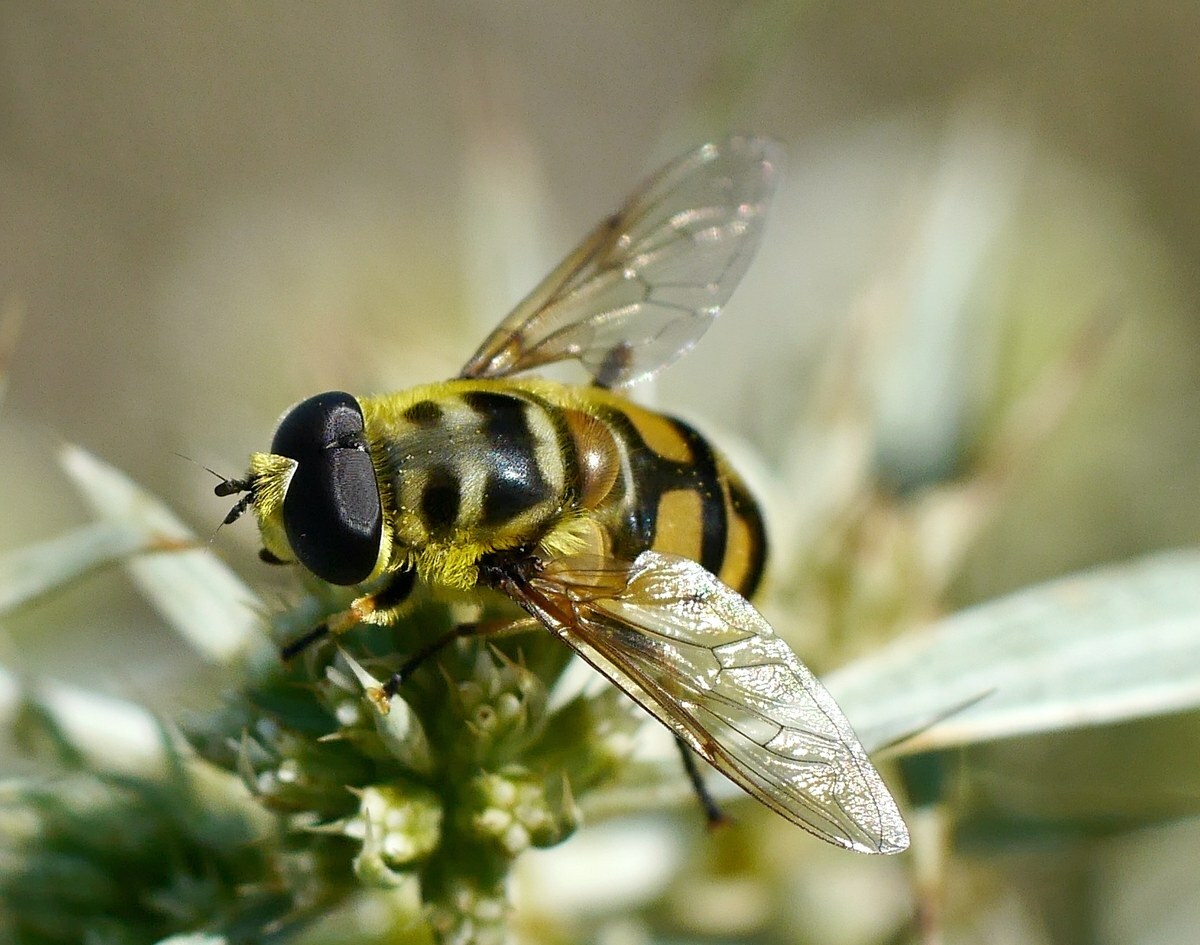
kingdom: Animalia
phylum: Arthropoda
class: Insecta
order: Diptera
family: Syrphidae
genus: Myathropa
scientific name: Myathropa florea
